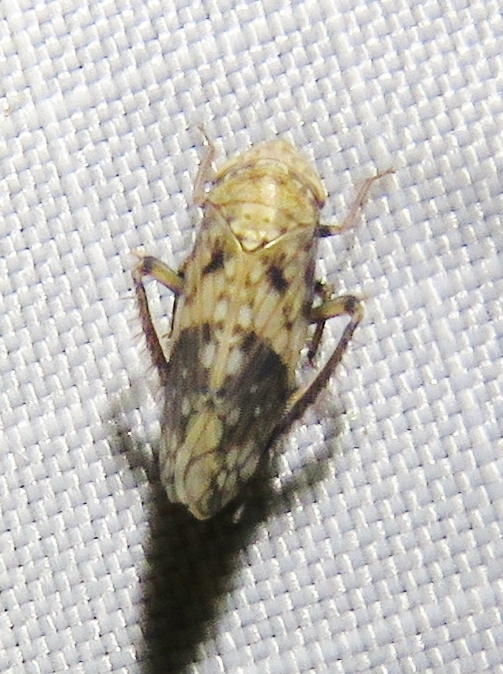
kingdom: Animalia
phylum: Arthropoda
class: Insecta
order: Hemiptera
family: Cicadellidae
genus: Menosoma
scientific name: Menosoma cinctum
